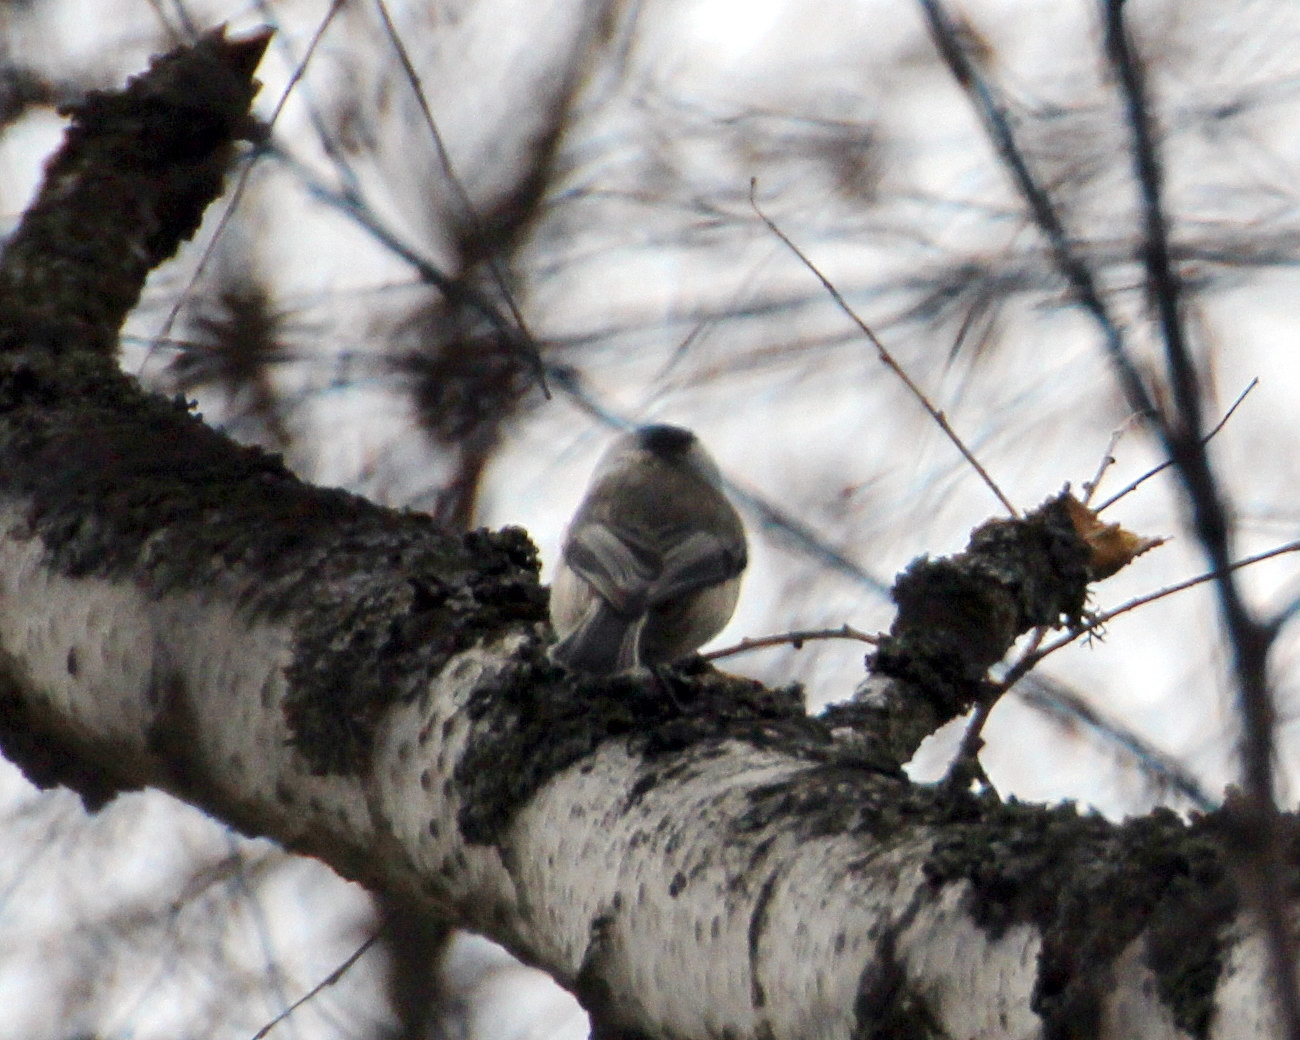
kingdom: Animalia
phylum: Chordata
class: Aves
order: Passeriformes
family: Paridae
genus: Poecile
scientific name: Poecile montanus
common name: Willow tit
